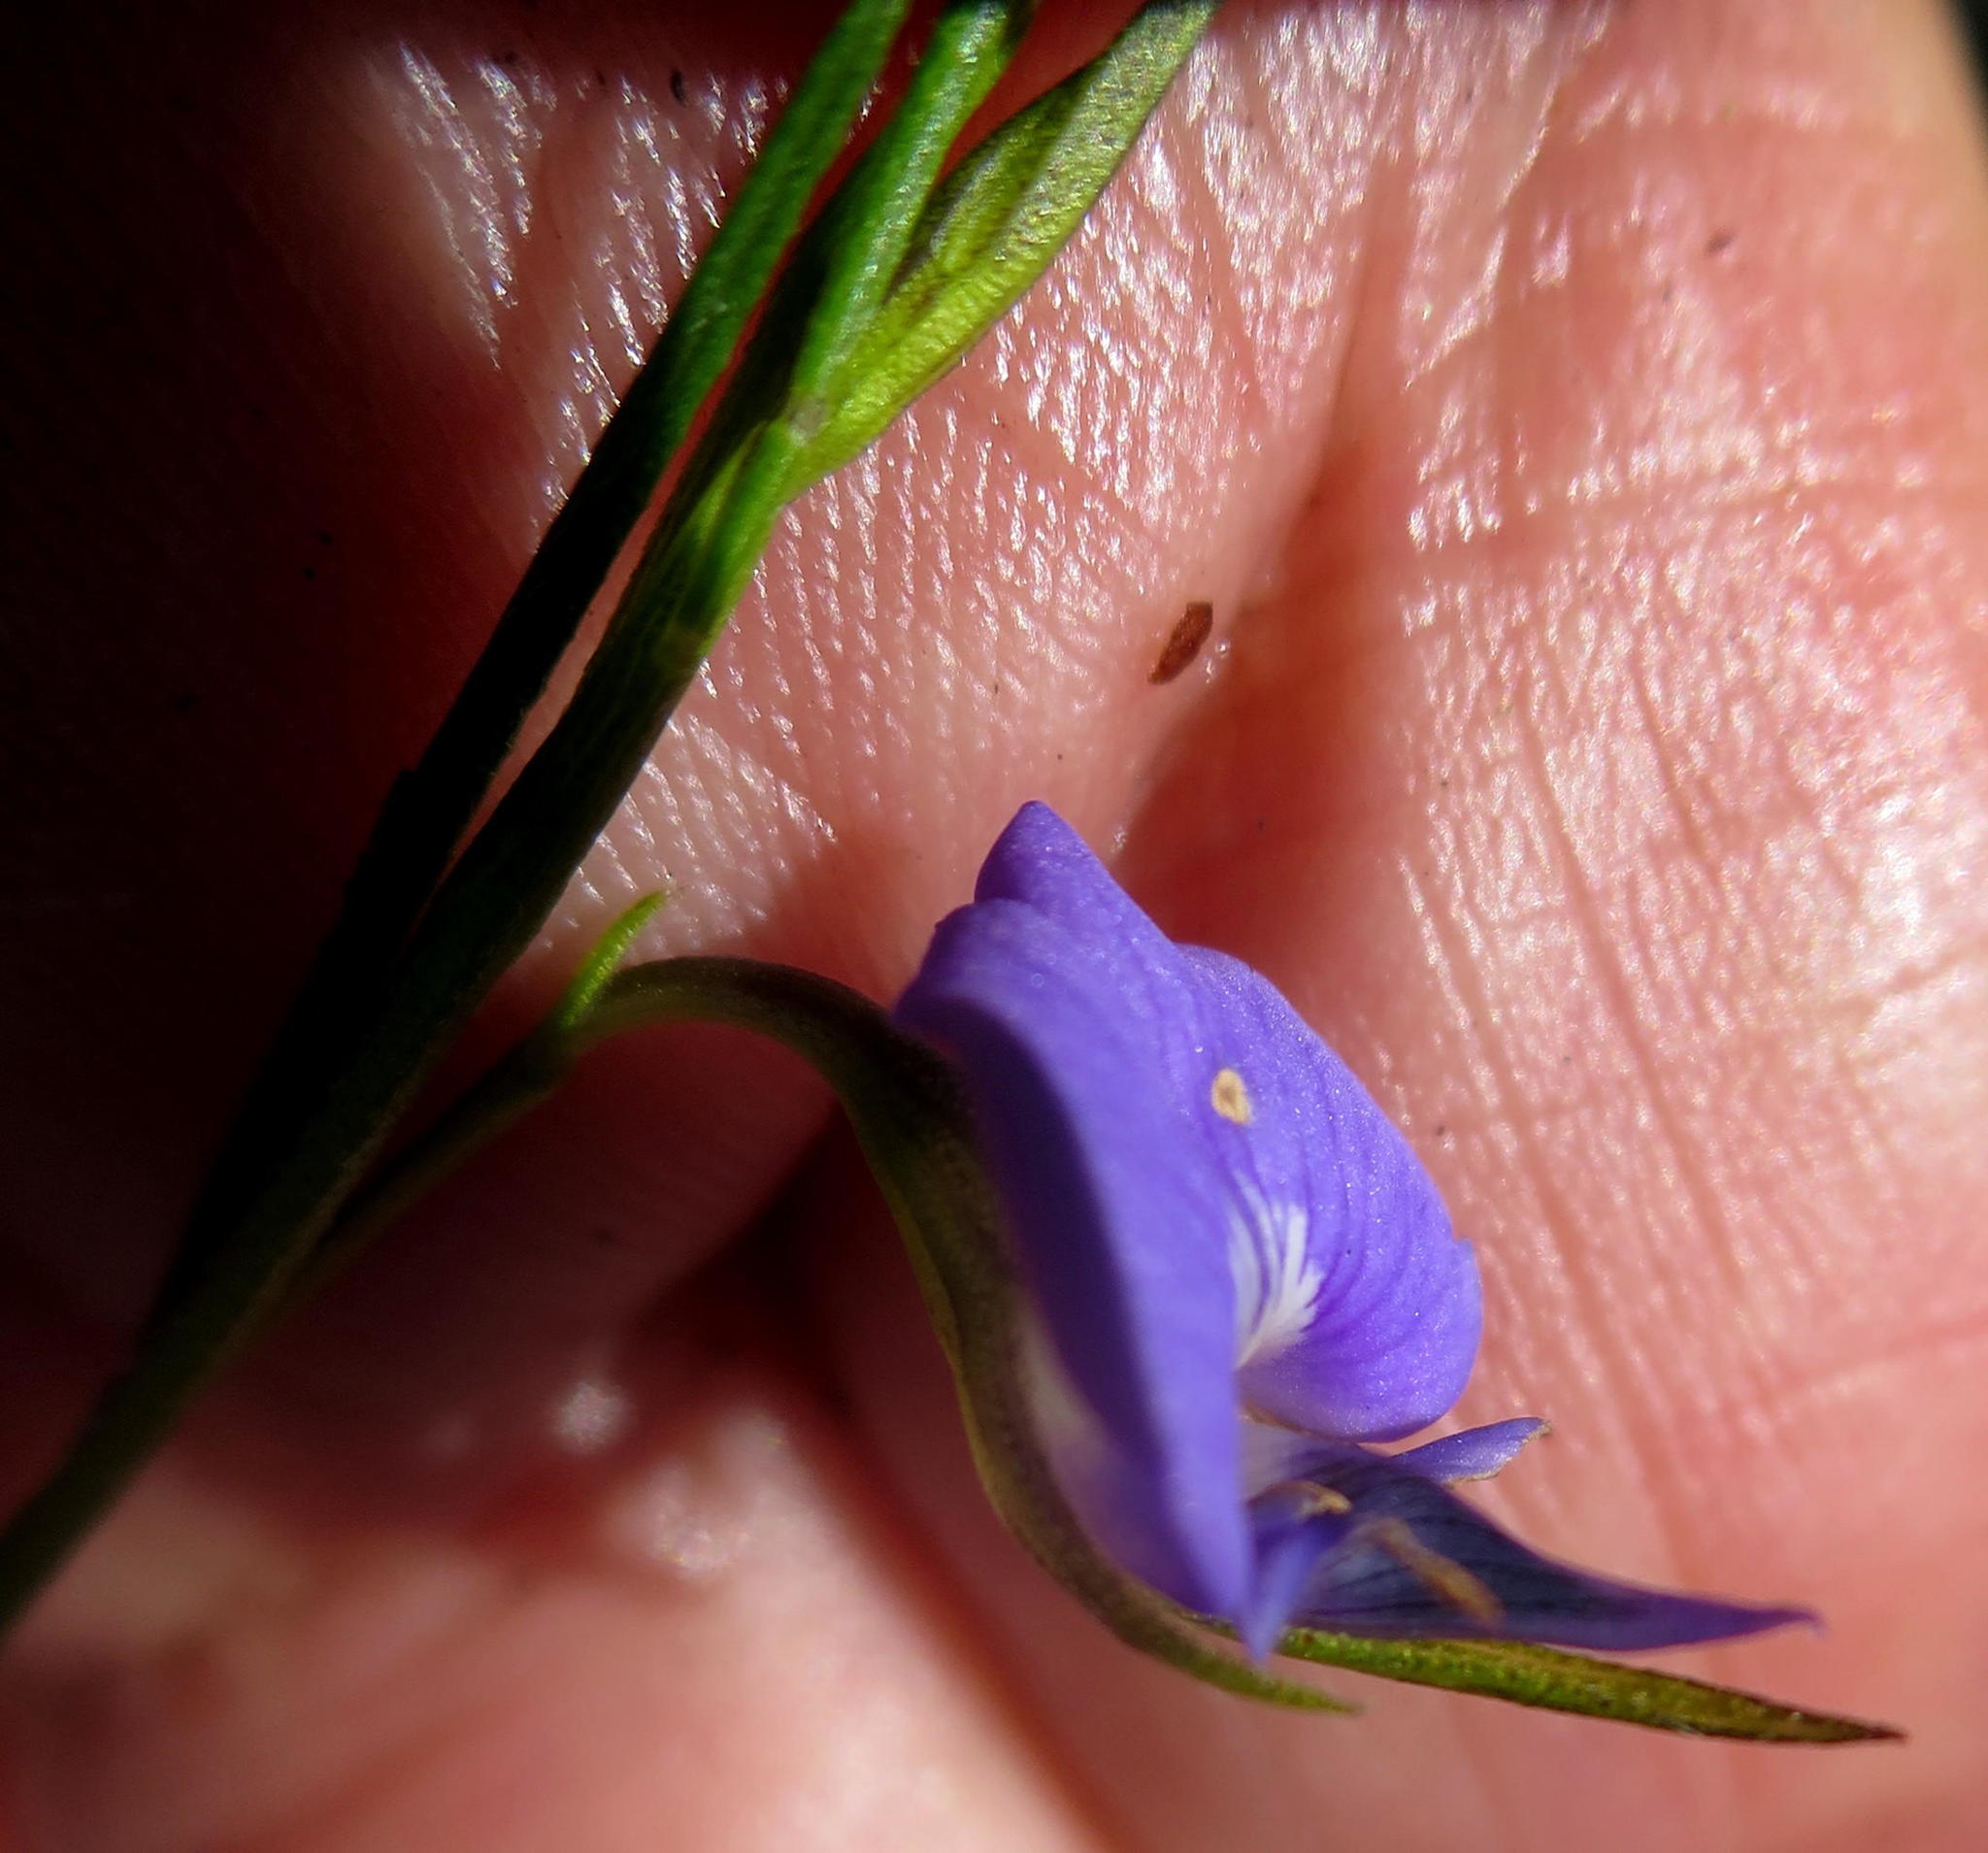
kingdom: Plantae
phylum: Tracheophyta
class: Magnoliopsida
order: Fabales
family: Fabaceae
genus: Psoralea
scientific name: Psoralea trullata
